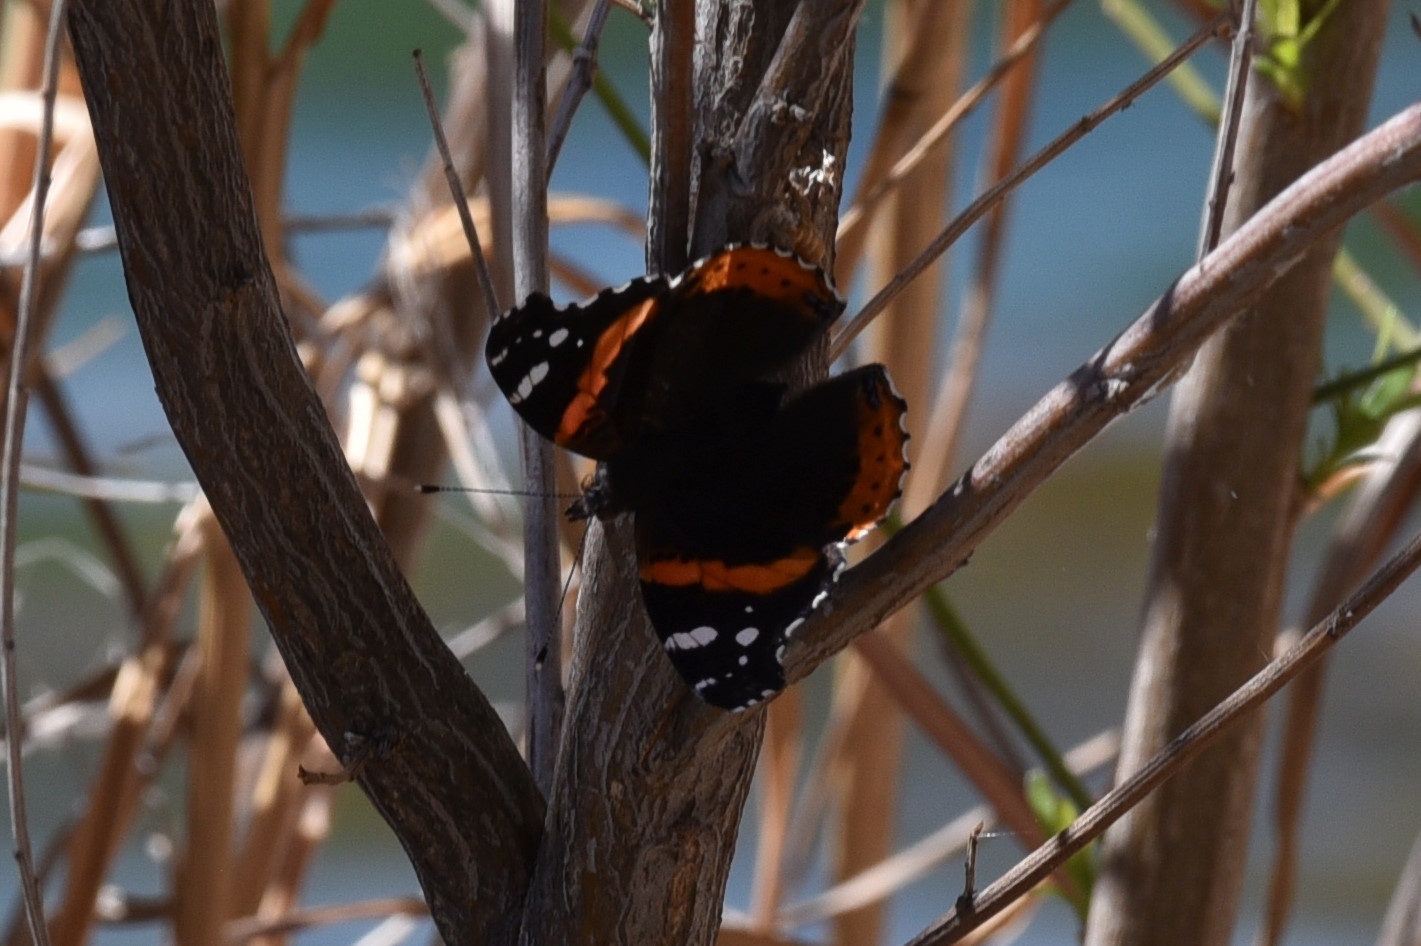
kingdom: Animalia
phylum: Arthropoda
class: Insecta
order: Lepidoptera
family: Nymphalidae
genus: Vanessa
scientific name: Vanessa atalanta
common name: Red admiral
